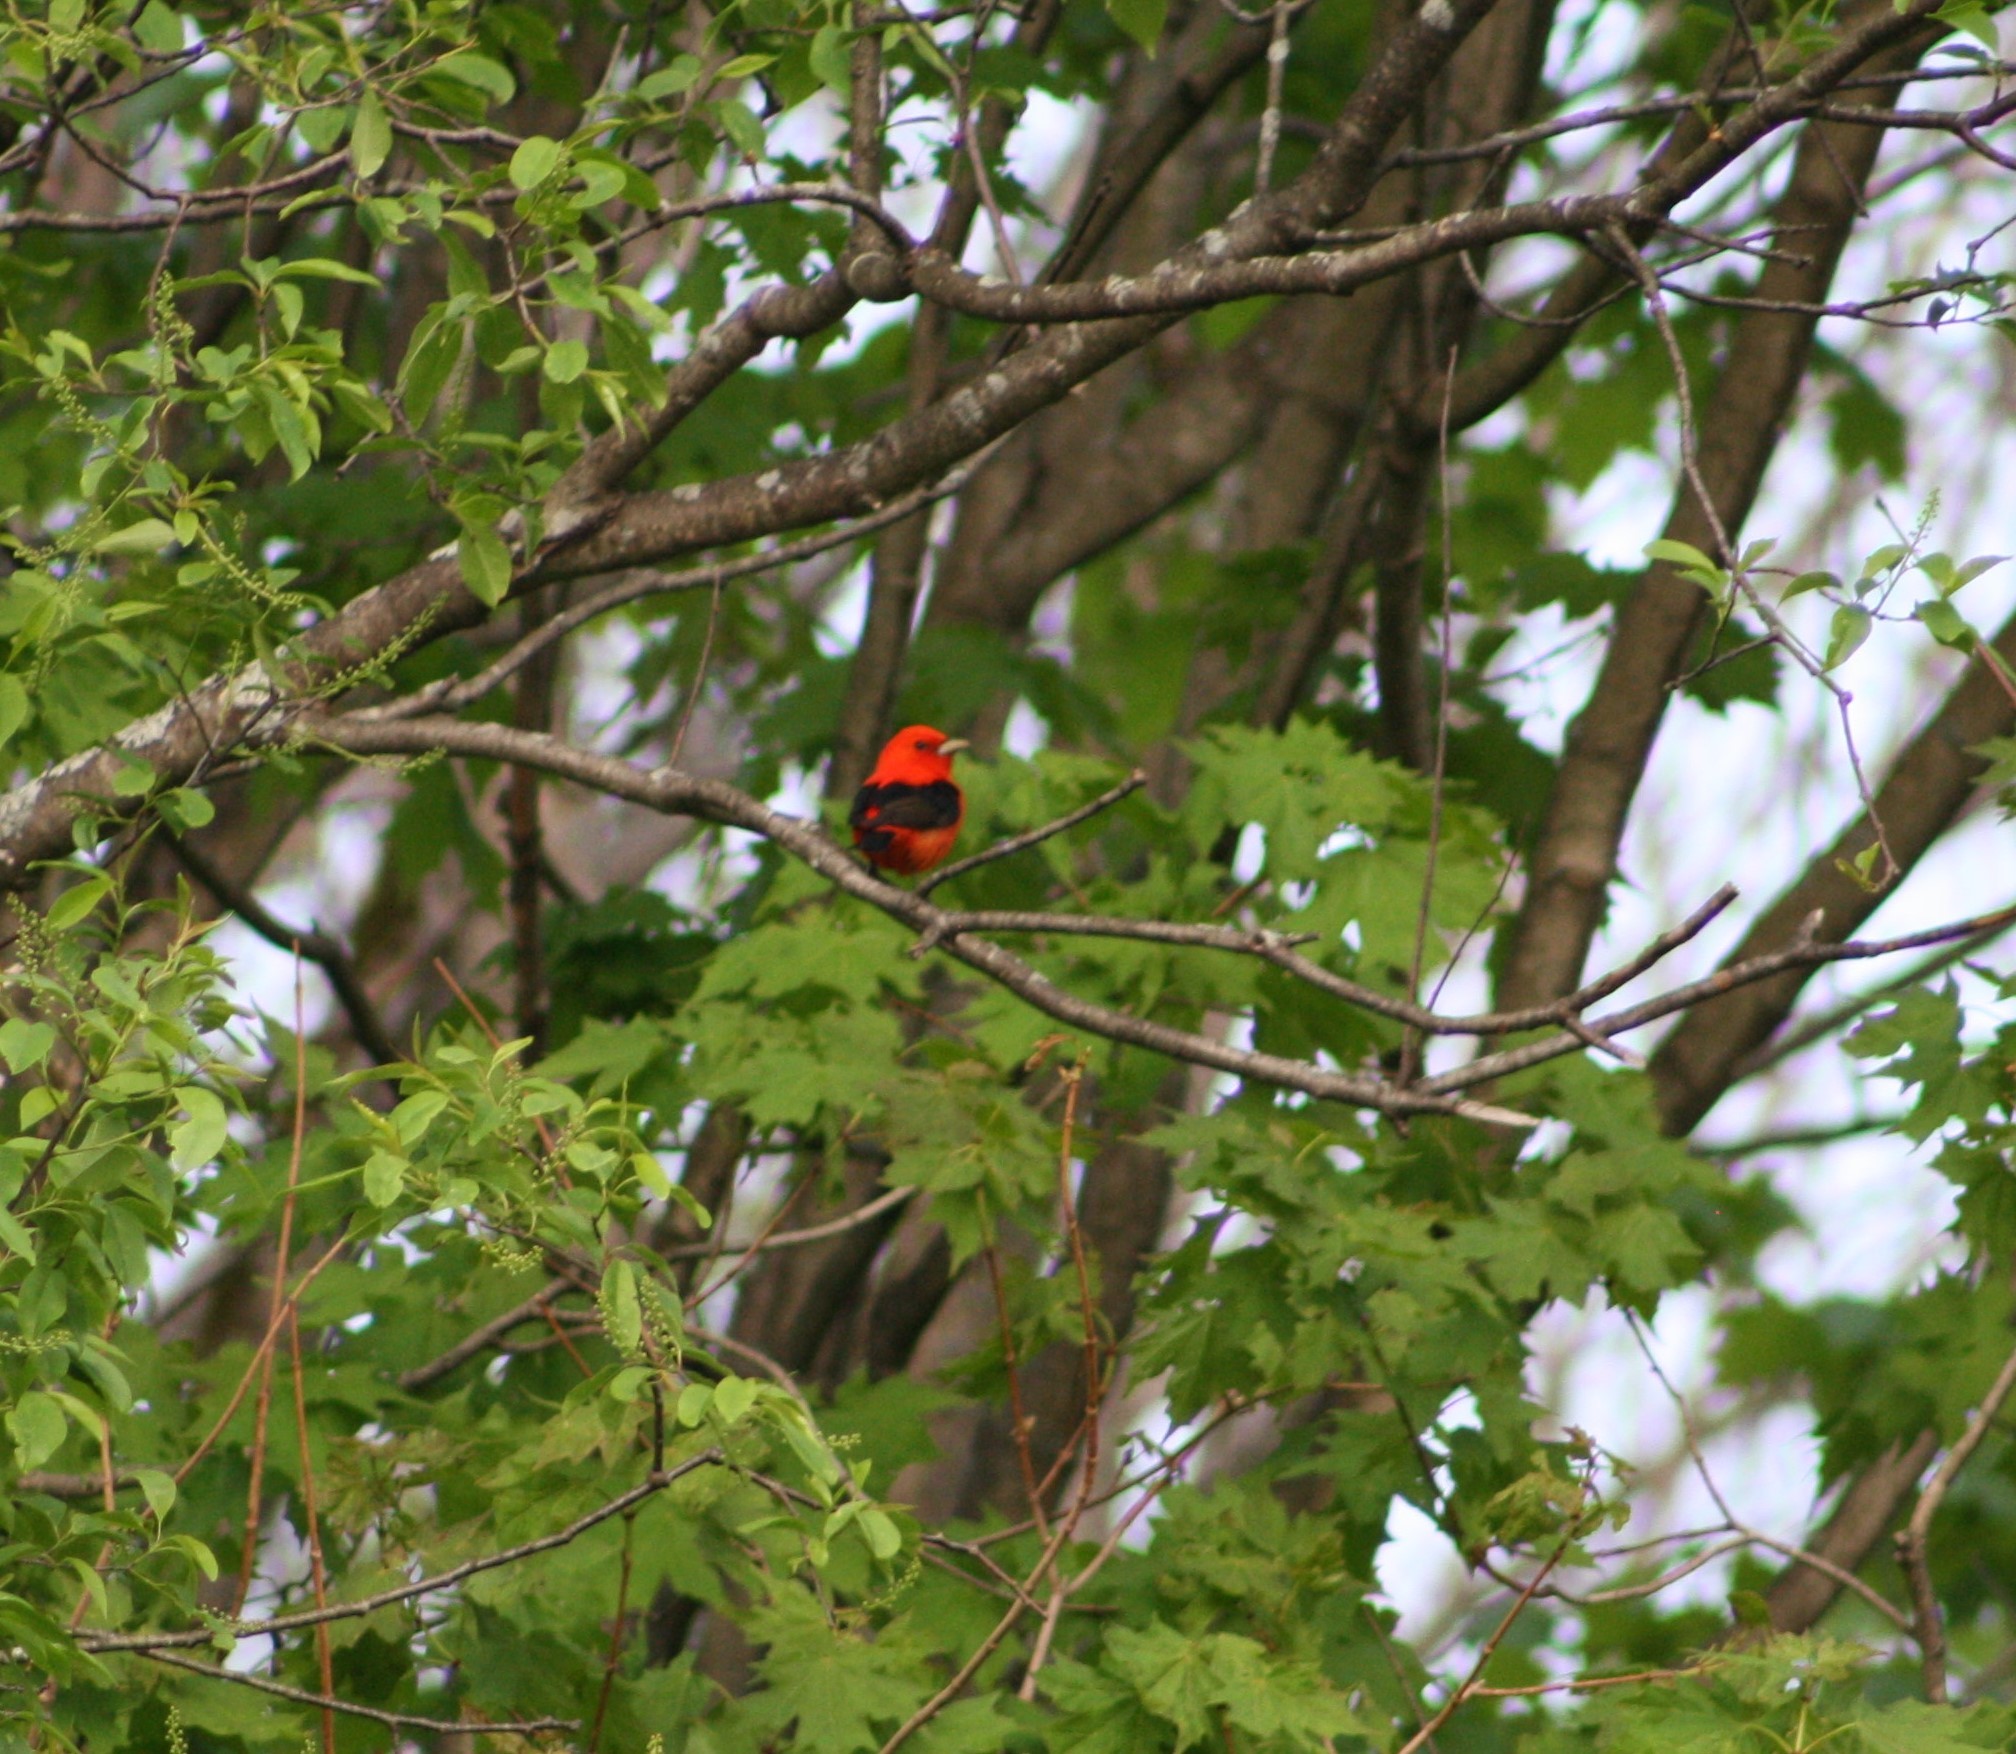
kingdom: Animalia
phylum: Chordata
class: Aves
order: Passeriformes
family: Cardinalidae
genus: Piranga
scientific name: Piranga olivacea
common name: Scarlet tanager
